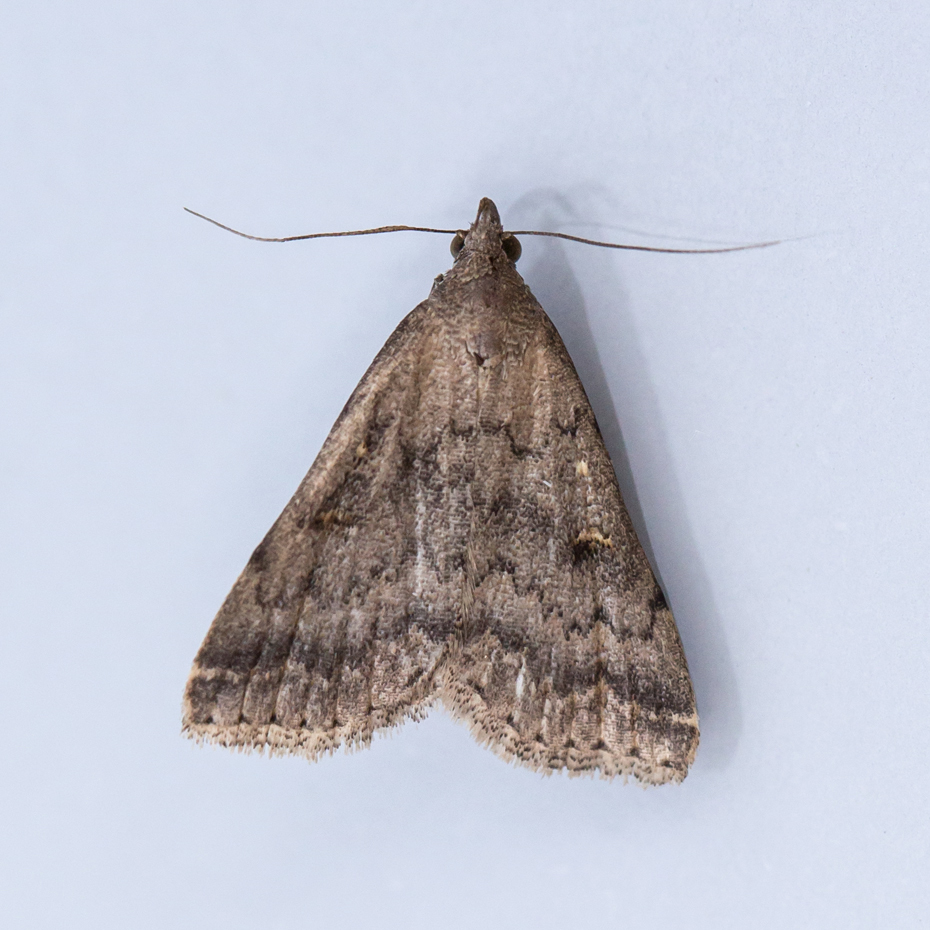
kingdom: Animalia
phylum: Arthropoda
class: Insecta
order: Lepidoptera
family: Erebidae
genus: Tetanolita
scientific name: Tetanolita floridana
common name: Florida tetanolita moth
